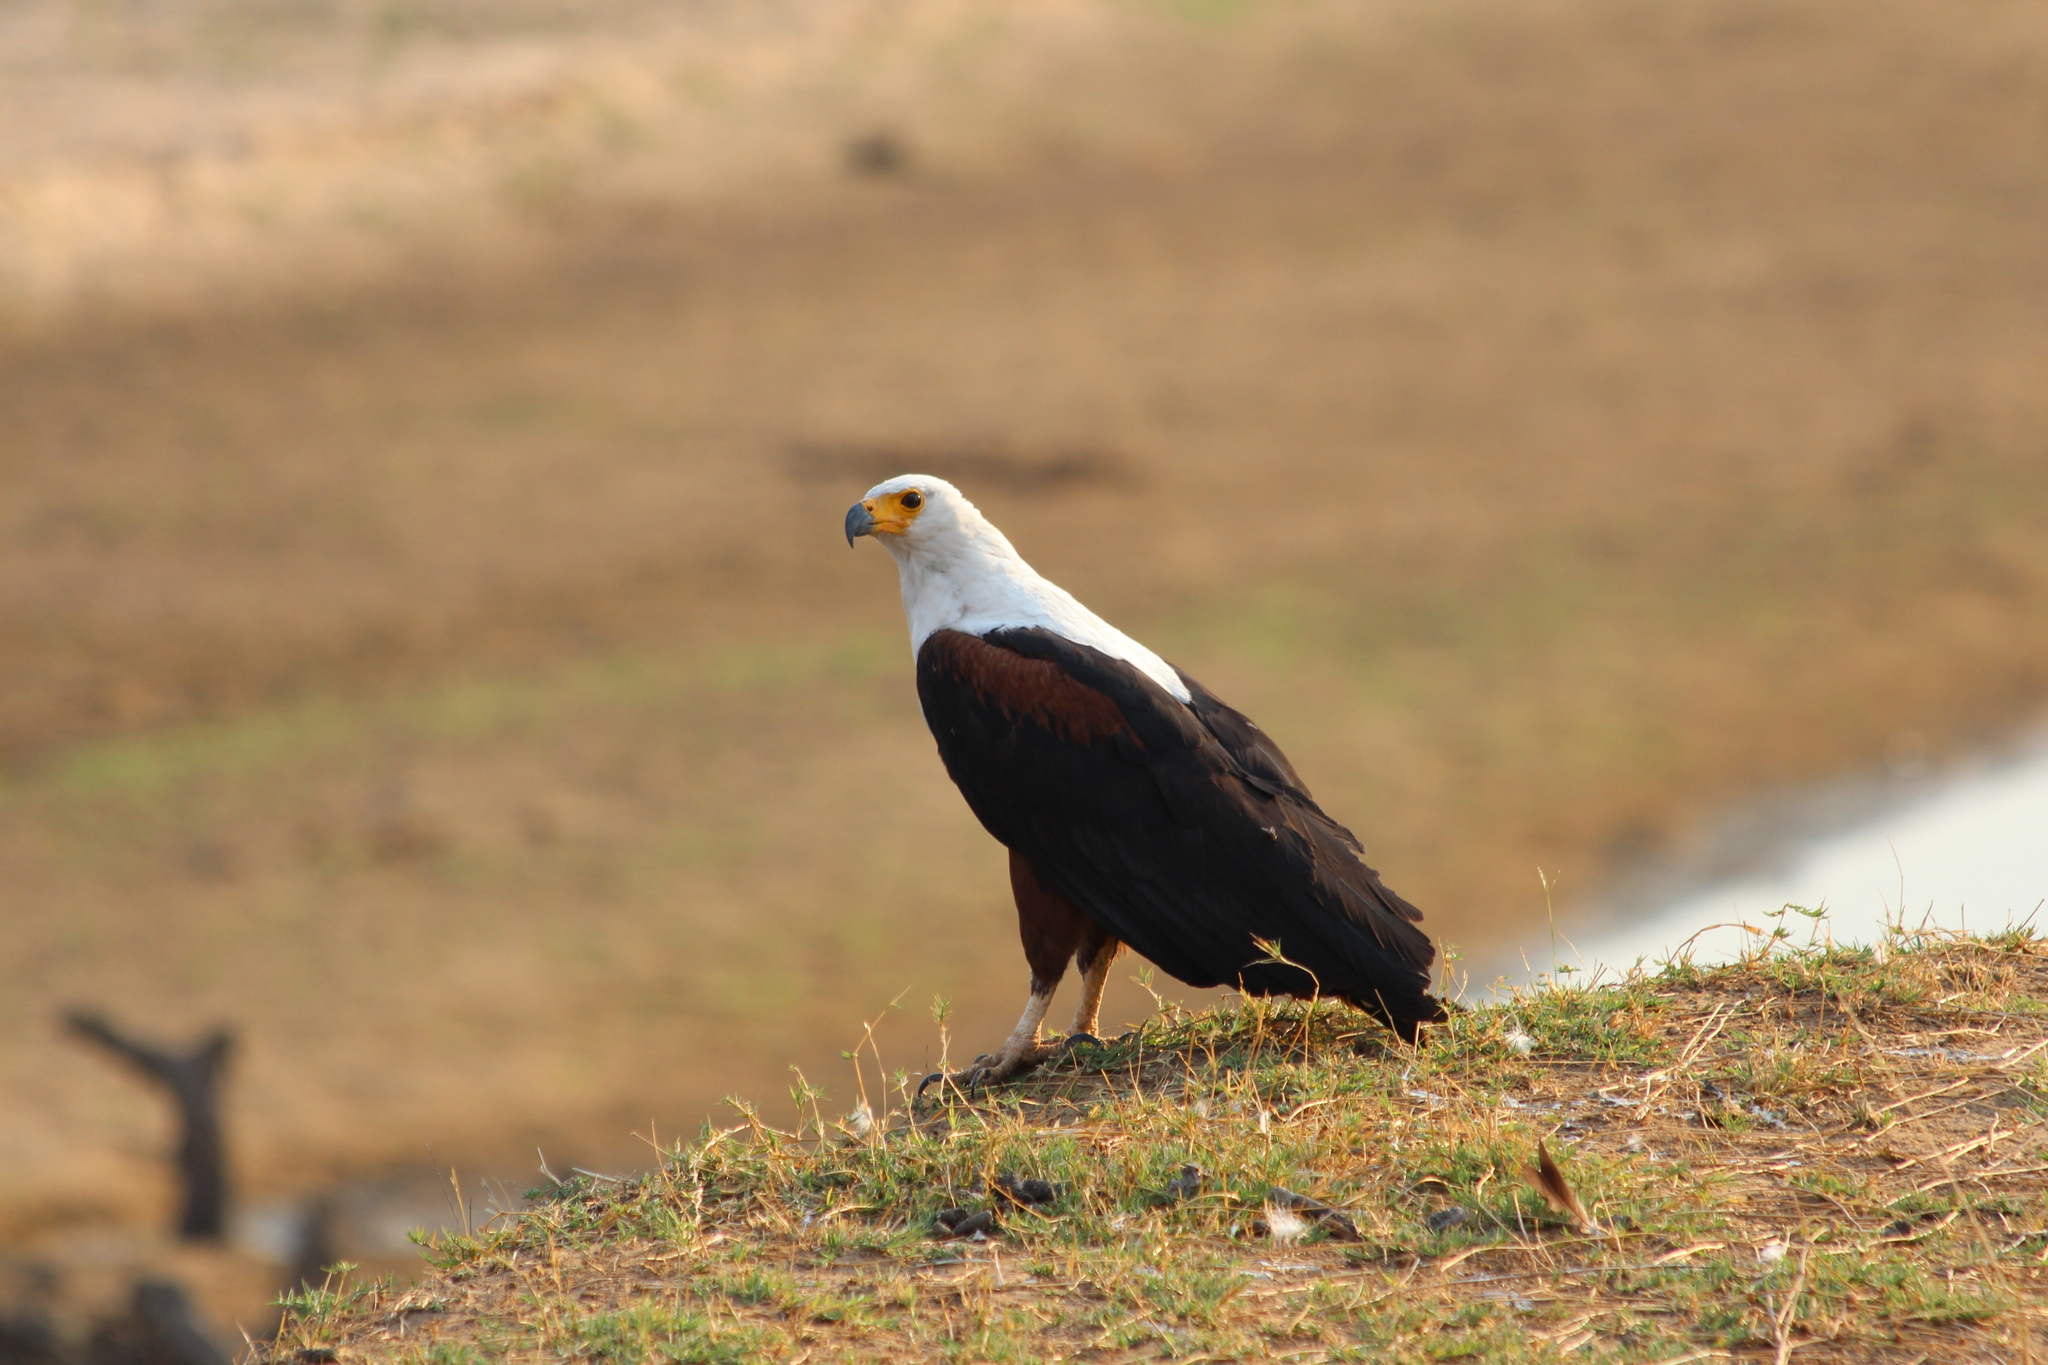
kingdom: Animalia
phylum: Chordata
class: Aves
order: Accipitriformes
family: Accipitridae
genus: Haliaeetus
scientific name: Haliaeetus vocifer
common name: African fish eagle
